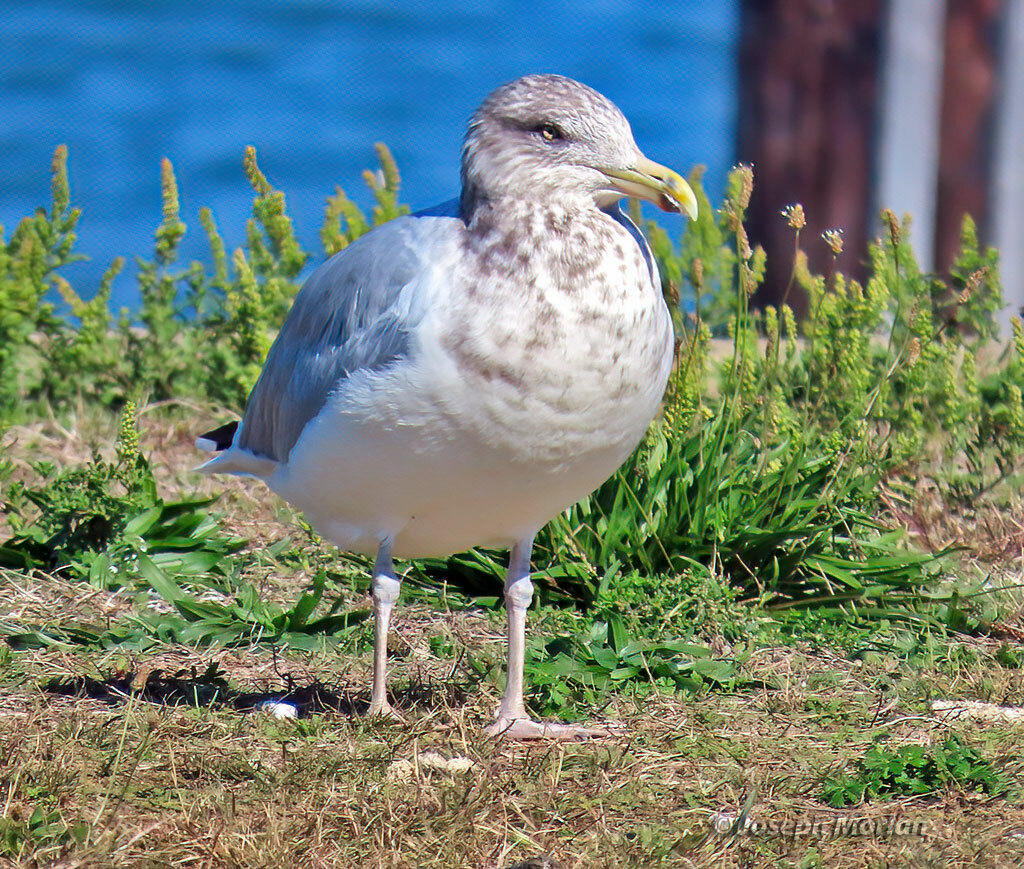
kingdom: Animalia
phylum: Chordata
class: Aves
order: Charadriiformes
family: Laridae
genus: Larus
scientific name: Larus argentatus
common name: Herring gull
